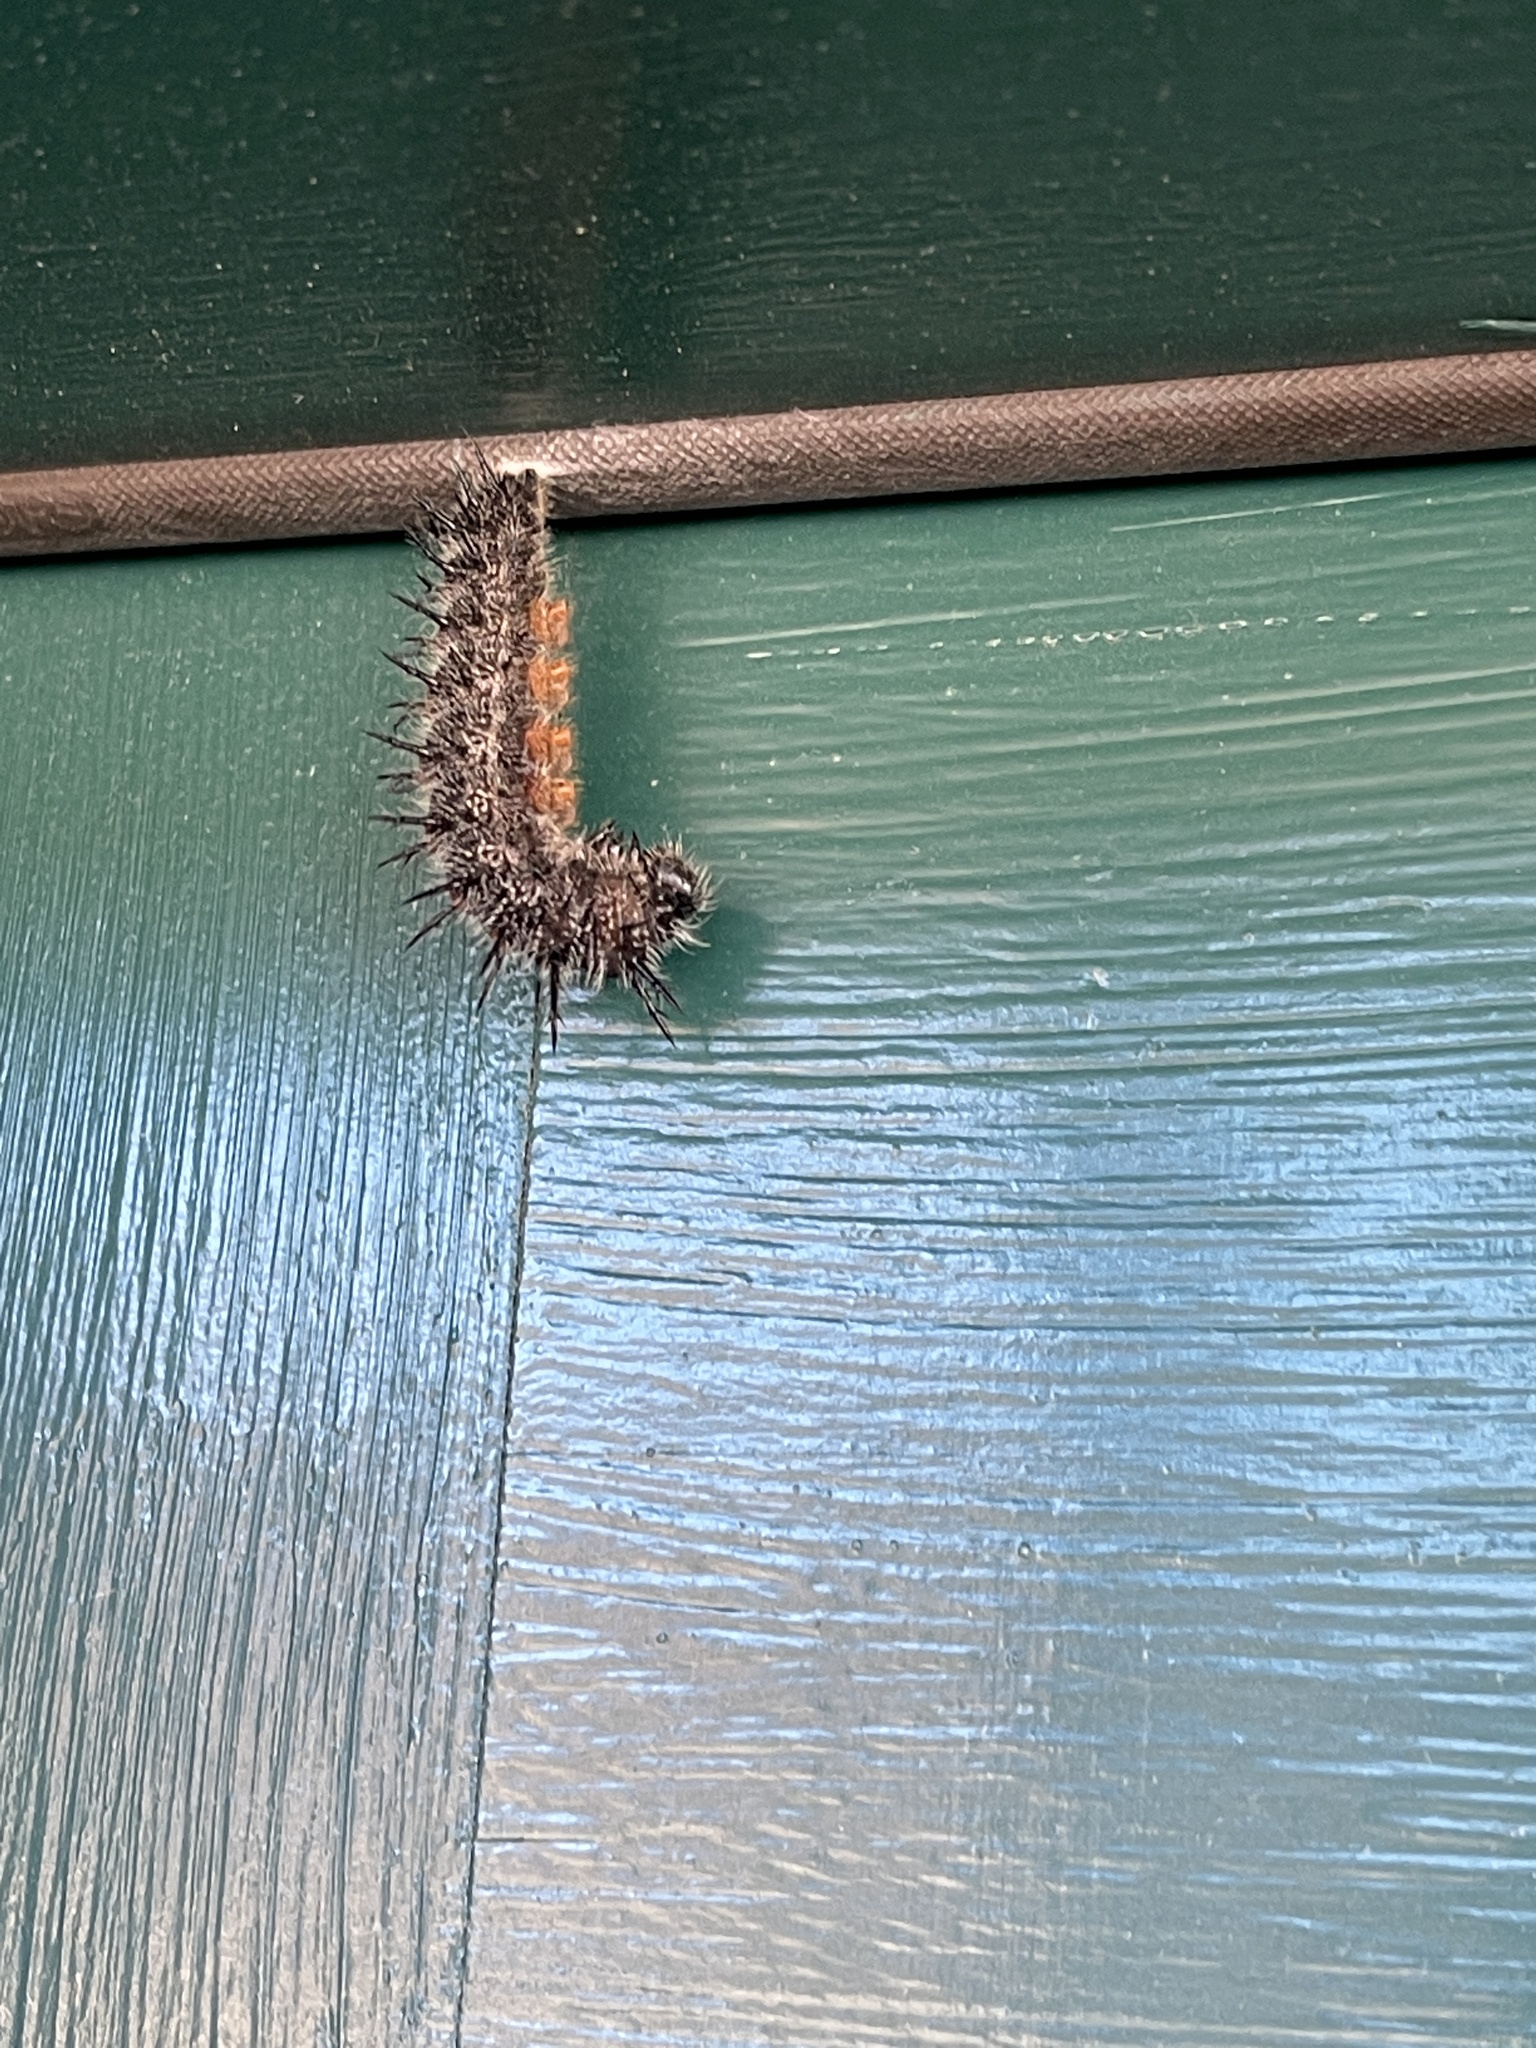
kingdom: Animalia
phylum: Arthropoda
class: Insecta
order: Lepidoptera
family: Nymphalidae
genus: Nymphalis
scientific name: Nymphalis antiopa
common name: Camberwell beauty
